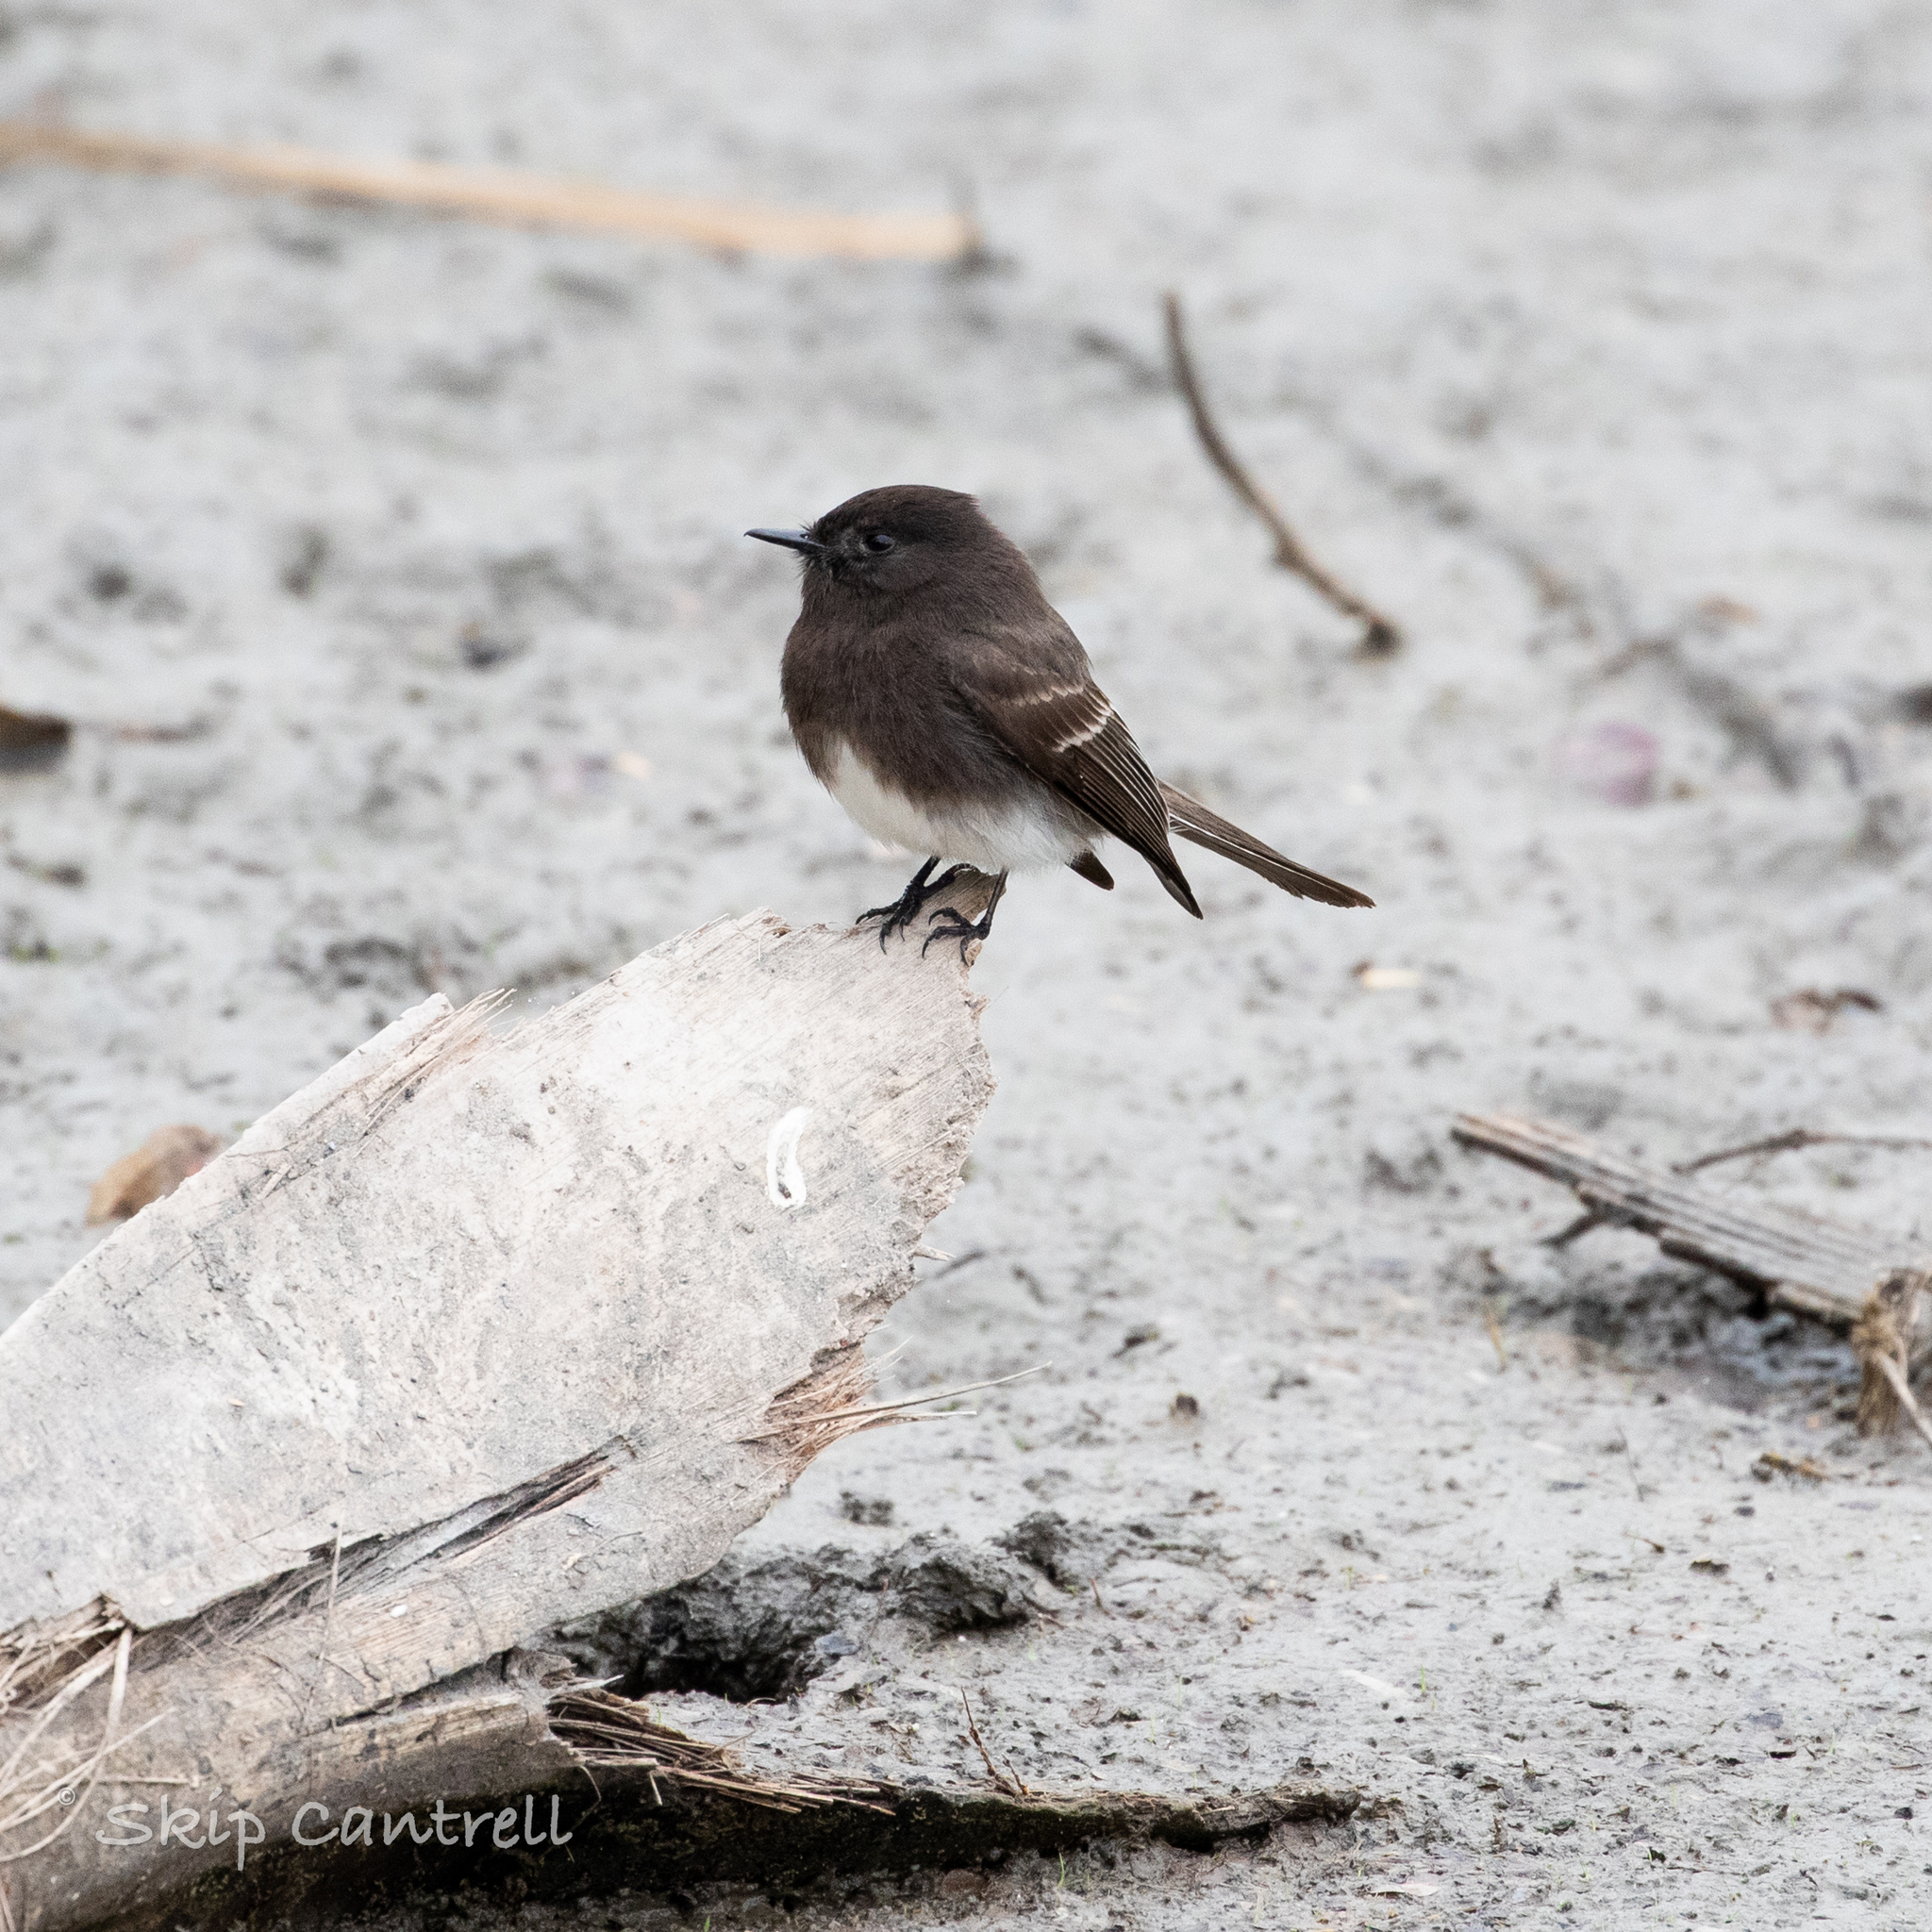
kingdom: Animalia
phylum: Chordata
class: Aves
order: Passeriformes
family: Tyrannidae
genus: Sayornis
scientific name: Sayornis nigricans
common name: Black phoebe
